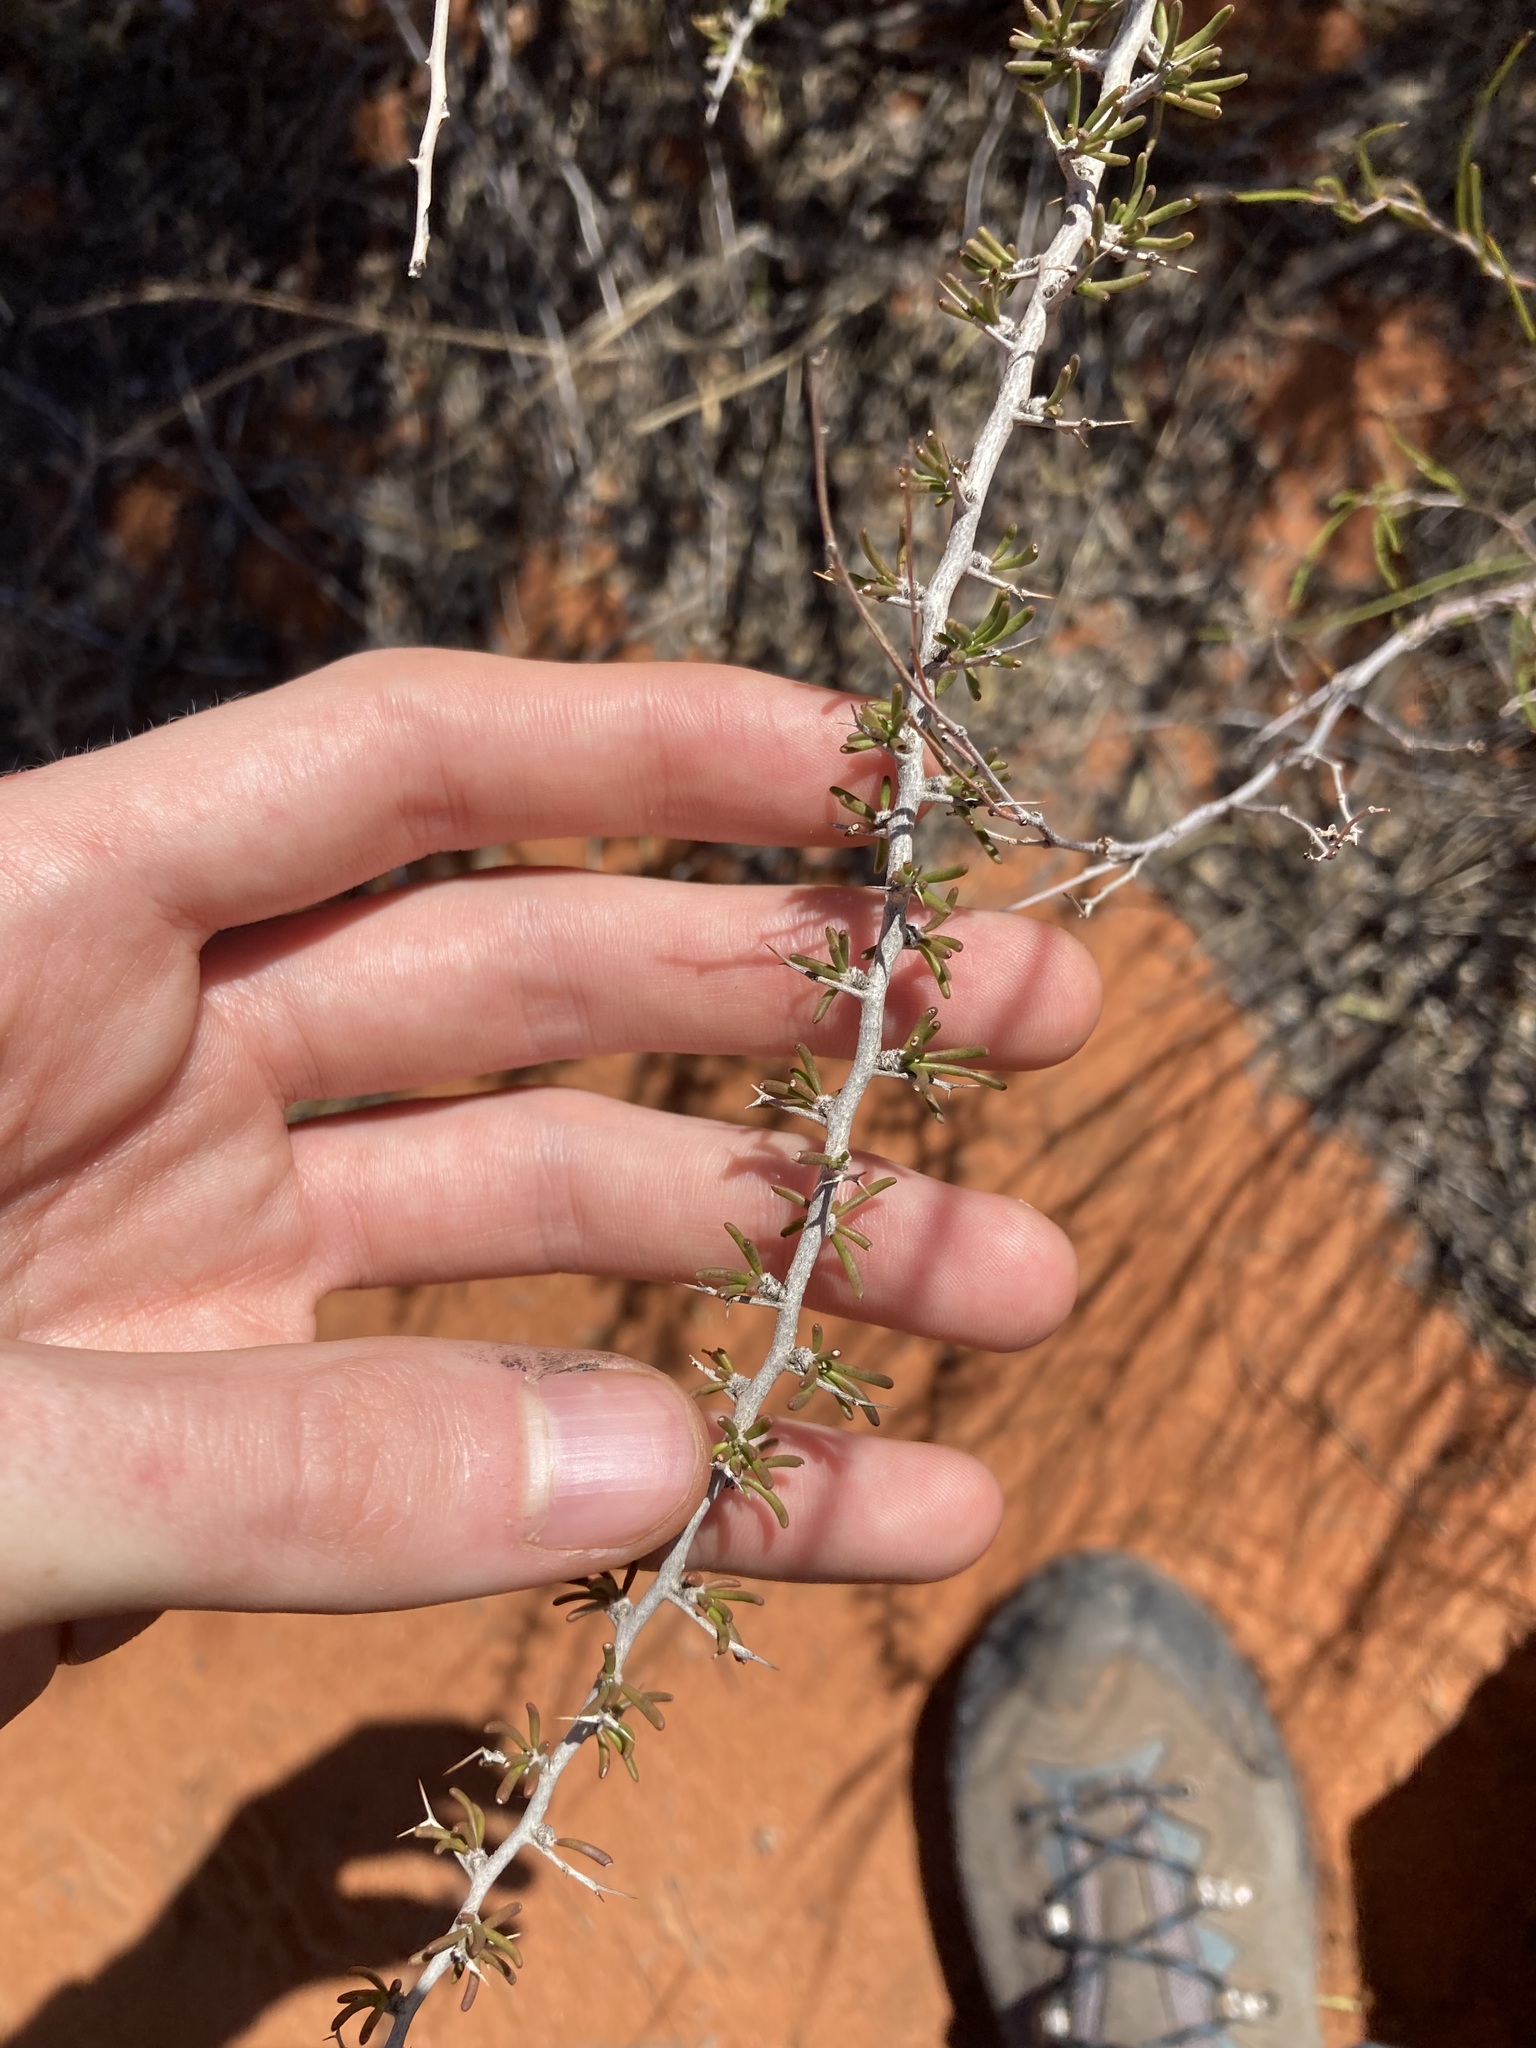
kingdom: Plantae
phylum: Tracheophyta
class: Magnoliopsida
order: Asterales
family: Goodeniaceae
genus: Scaevola
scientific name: Scaevola spinescens
